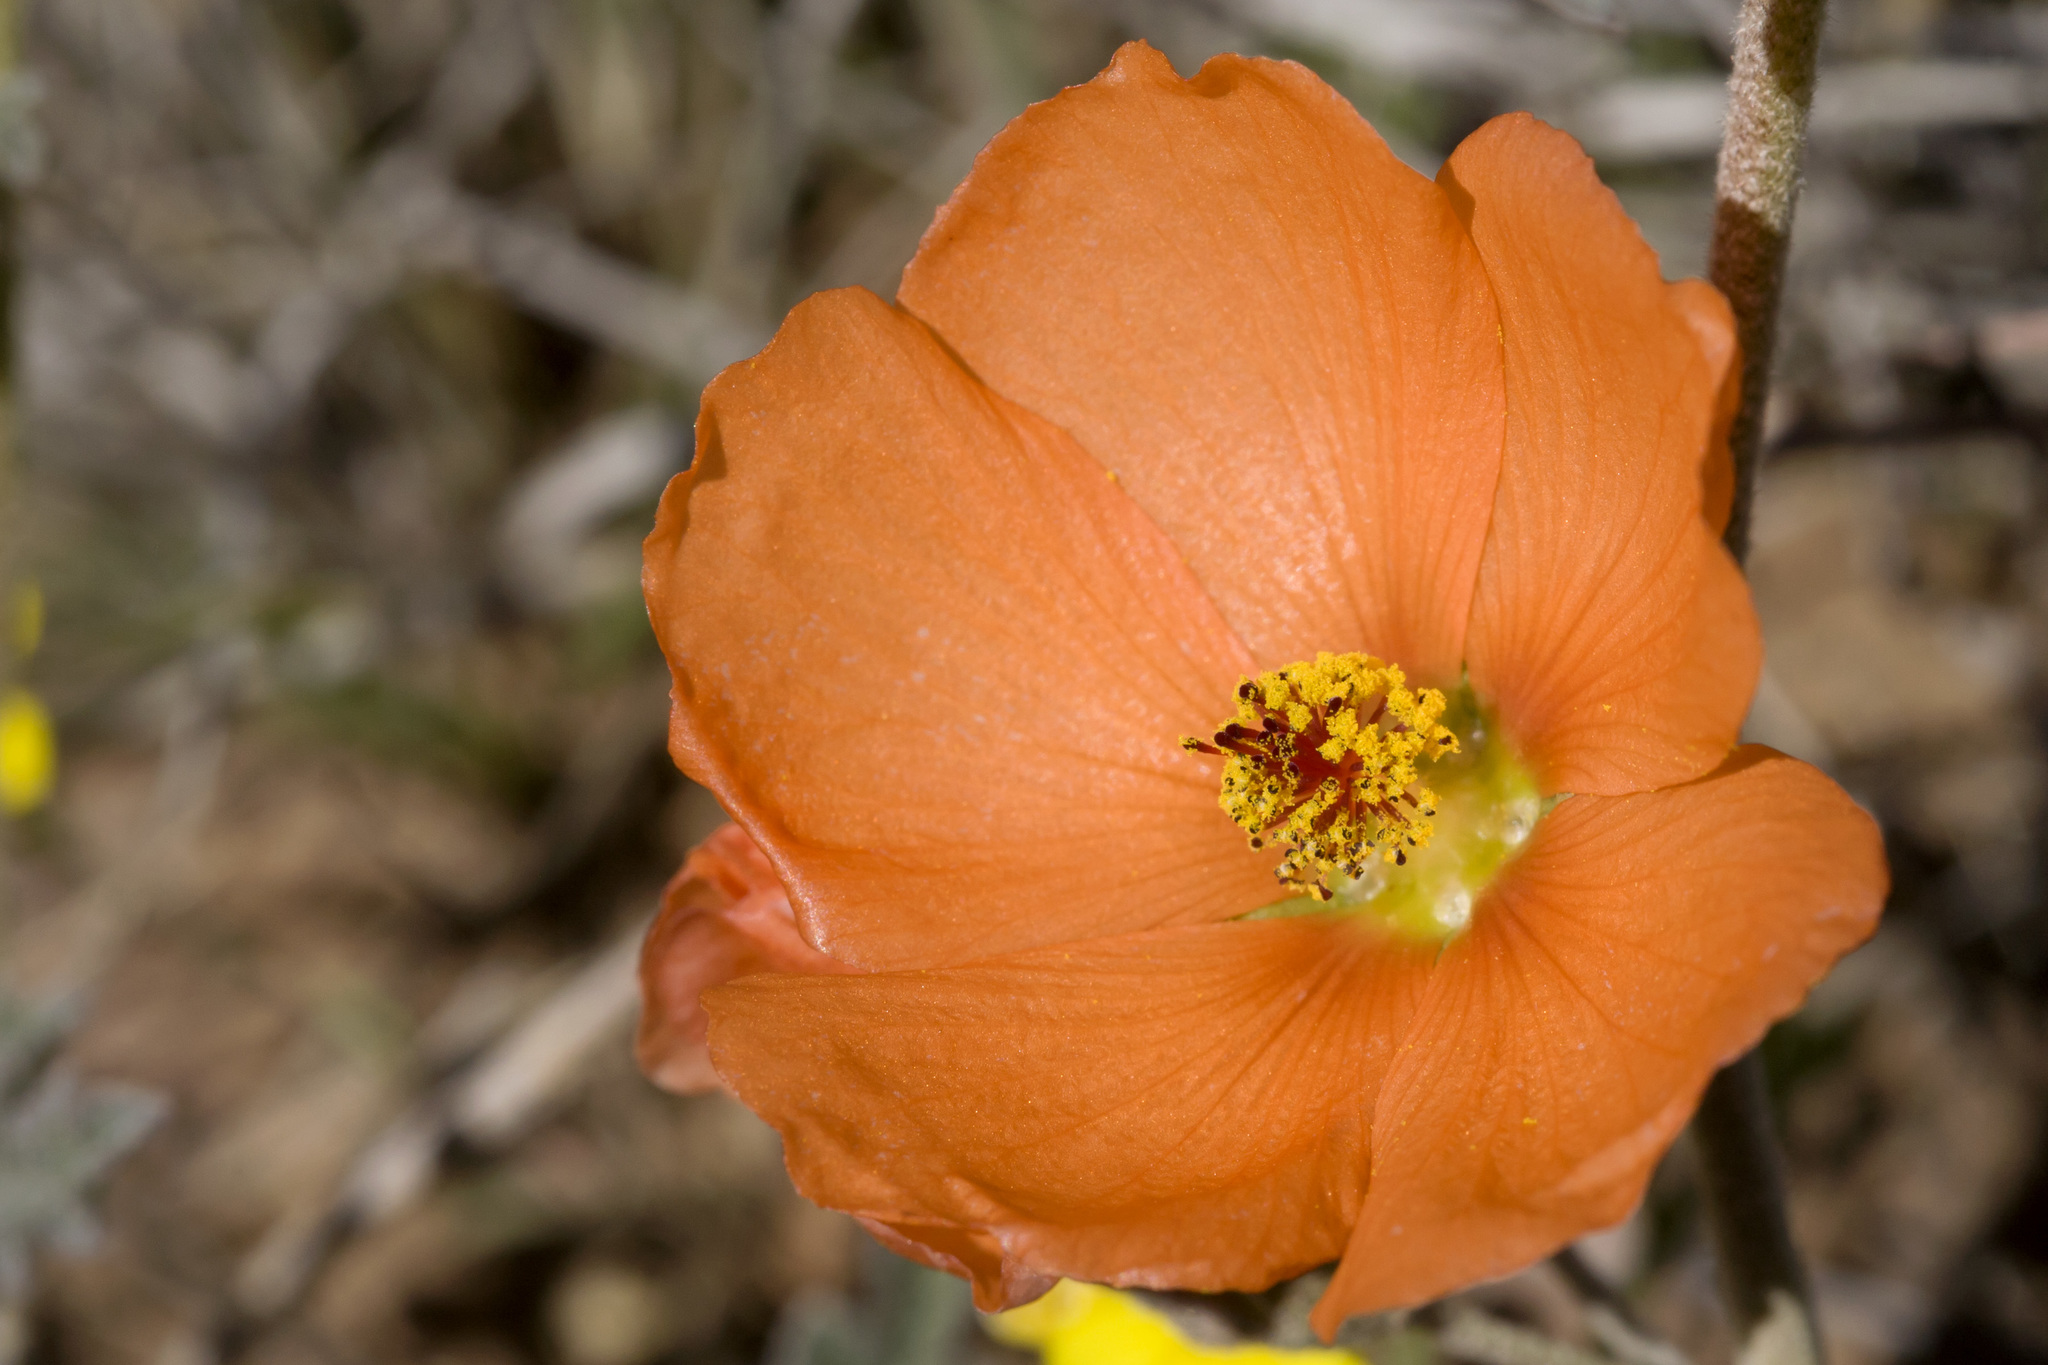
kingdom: Plantae
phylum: Tracheophyta
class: Magnoliopsida
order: Malvales
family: Malvaceae
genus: Sphaeralcea
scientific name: Sphaeralcea hastulata
